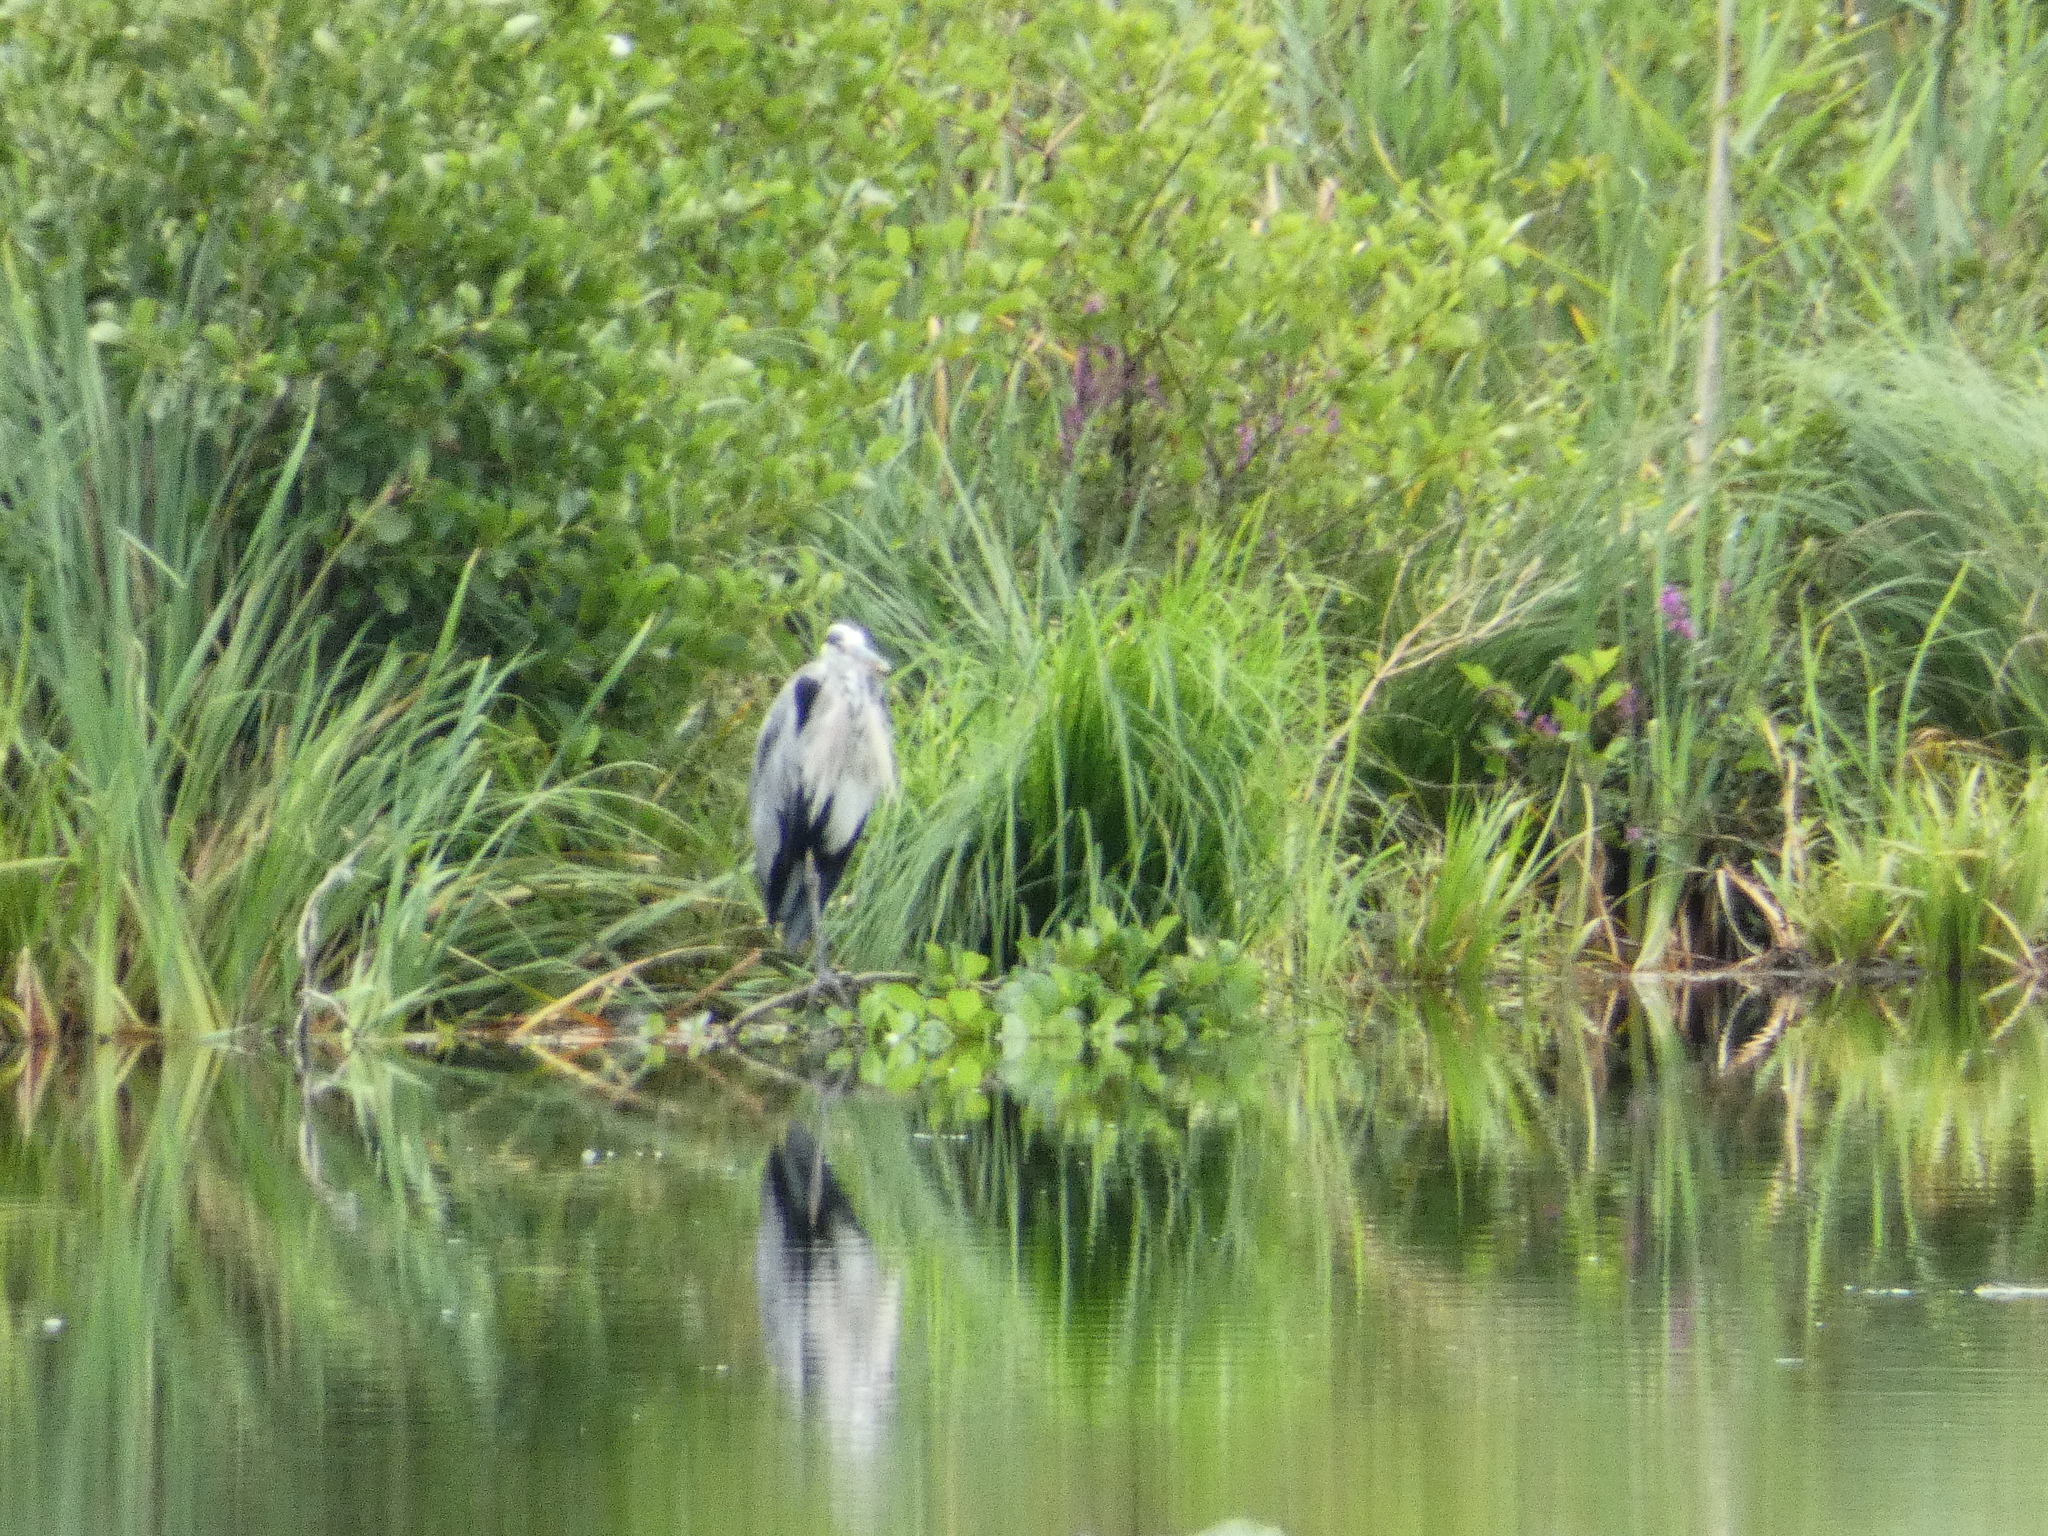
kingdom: Animalia
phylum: Chordata
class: Aves
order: Pelecaniformes
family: Ardeidae
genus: Ardea
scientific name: Ardea cinerea
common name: Grey heron
